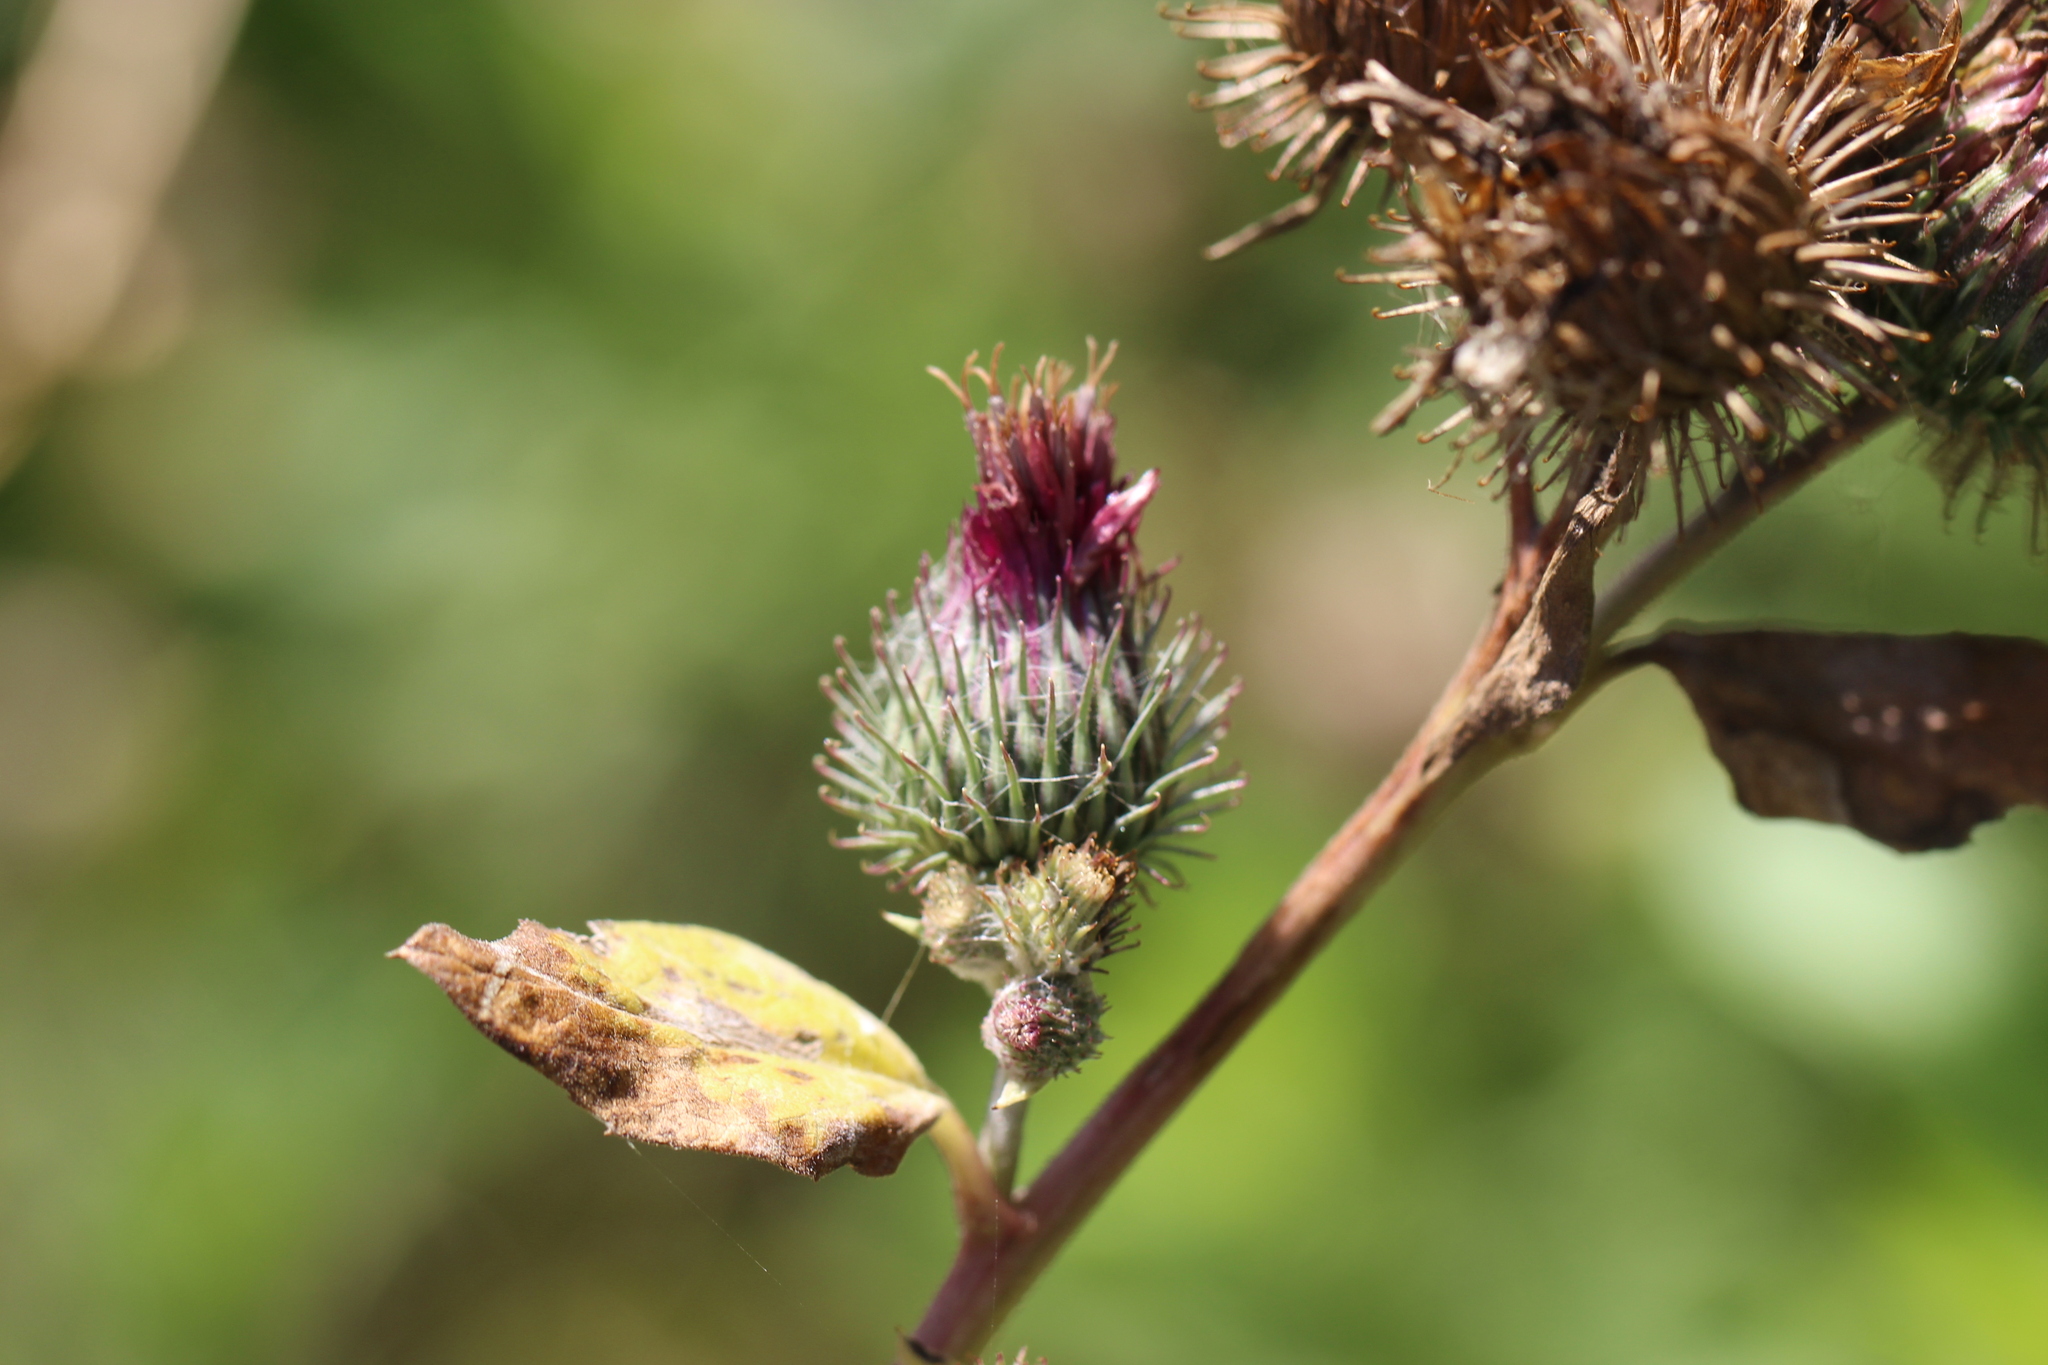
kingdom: Plantae
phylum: Tracheophyta
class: Magnoliopsida
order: Asterales
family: Asteraceae
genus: Arctium
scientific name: Arctium tomentosum
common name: Woolly burdock
